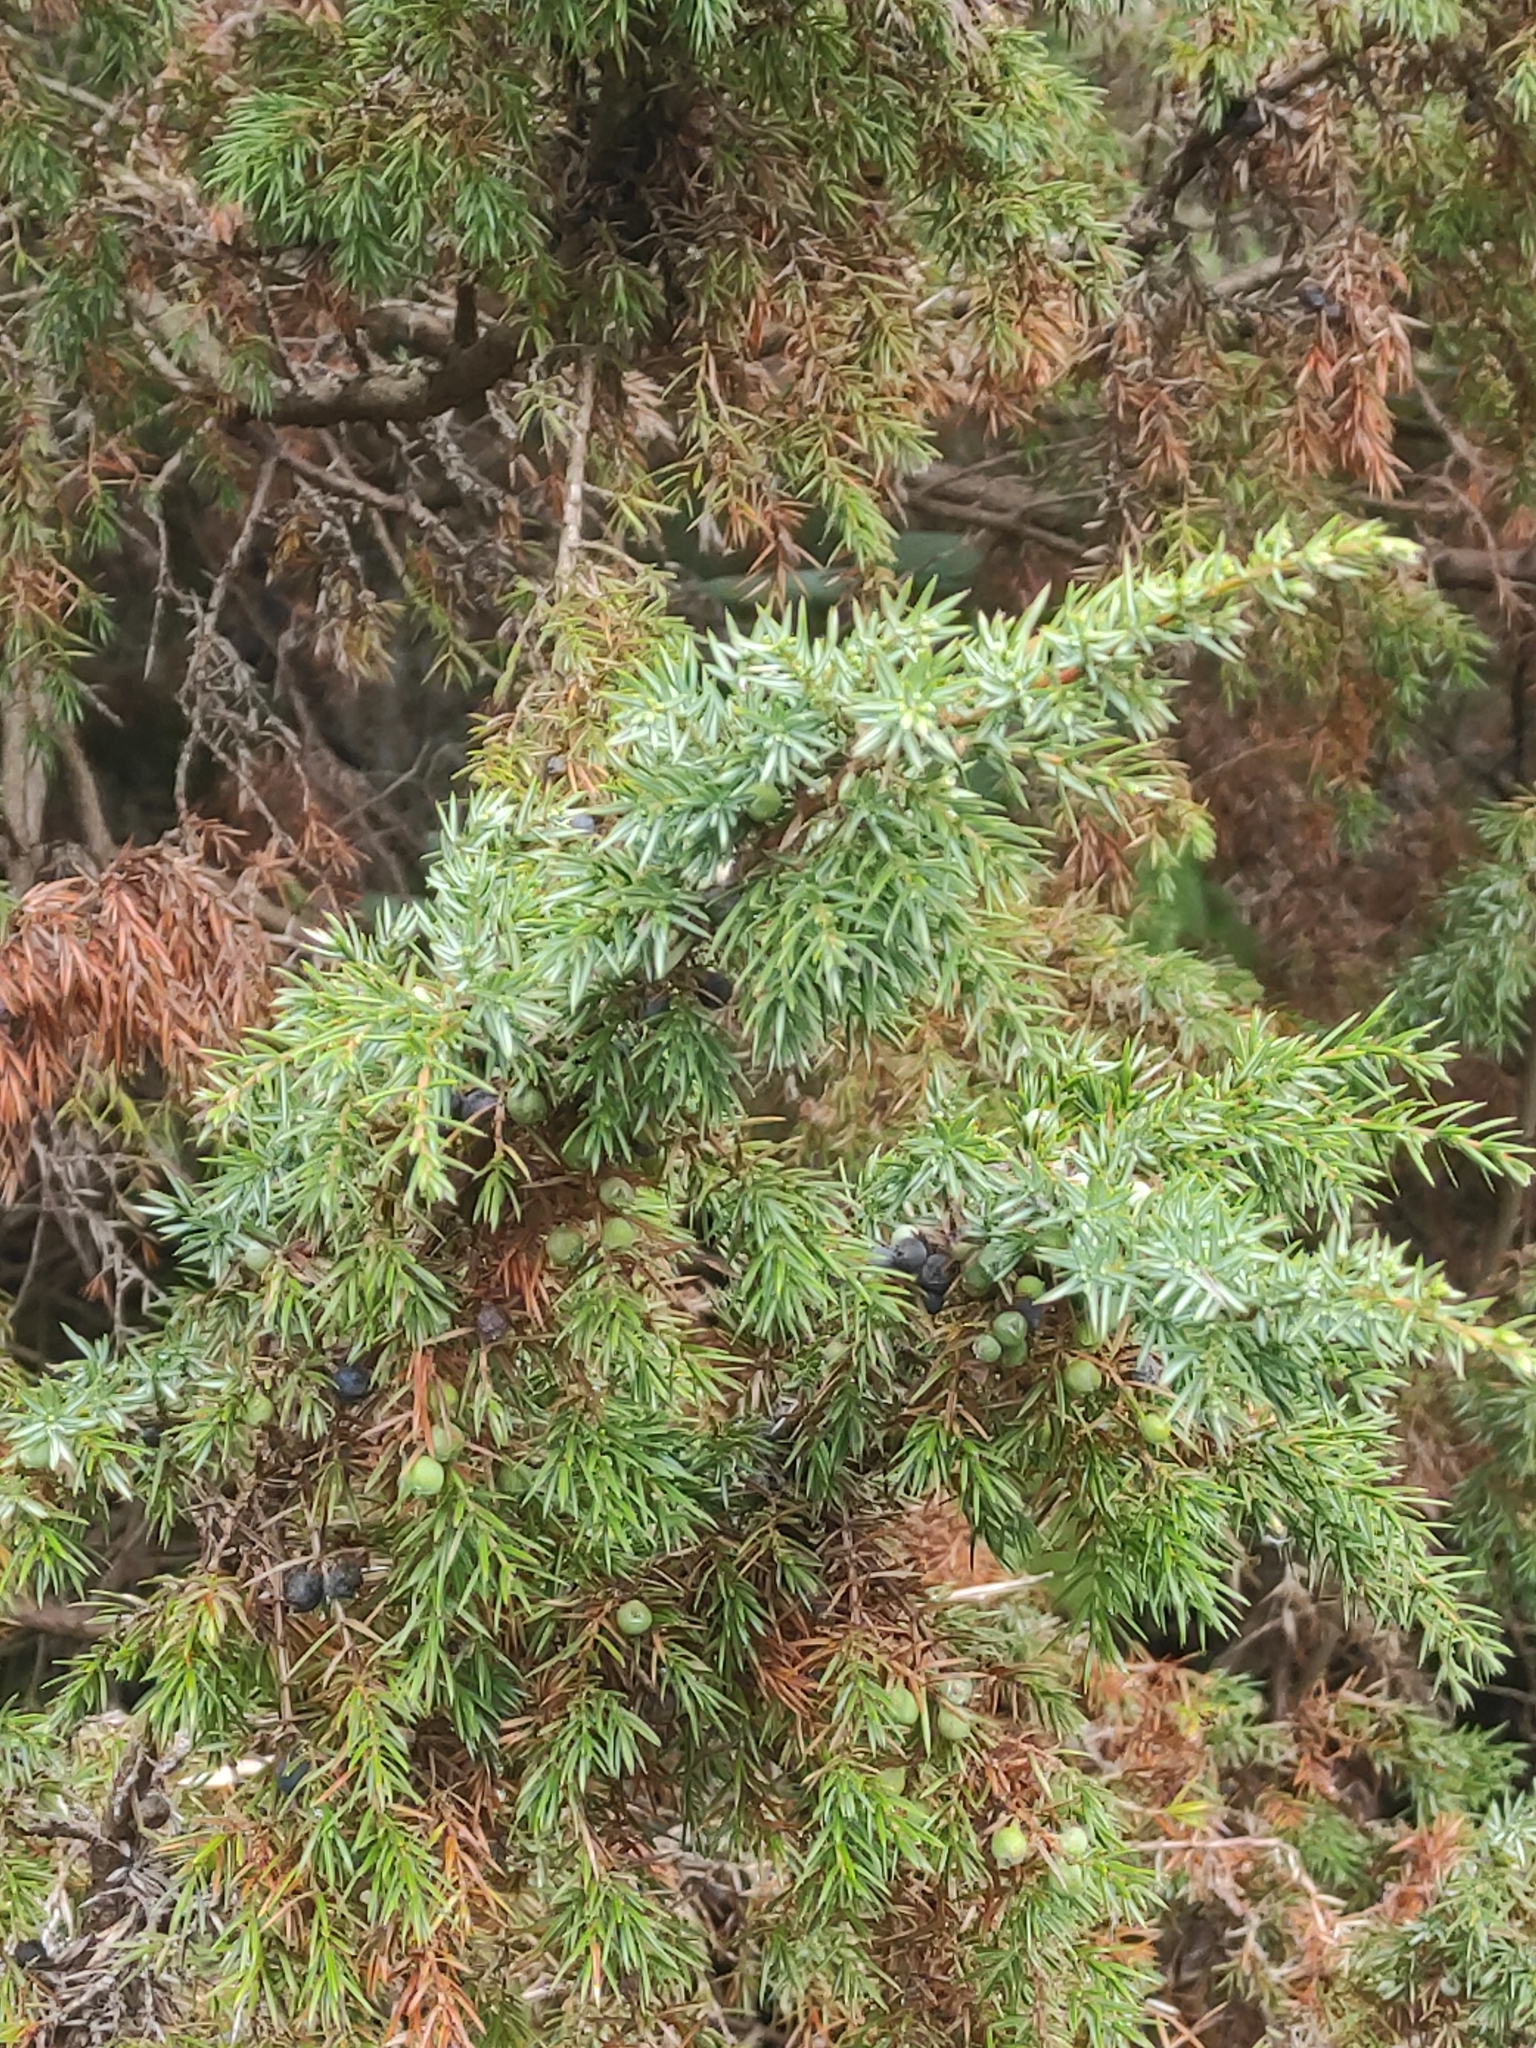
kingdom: Plantae
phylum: Tracheophyta
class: Pinopsida
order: Pinales
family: Cupressaceae
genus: Juniperus
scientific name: Juniperus communis
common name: Common juniper
